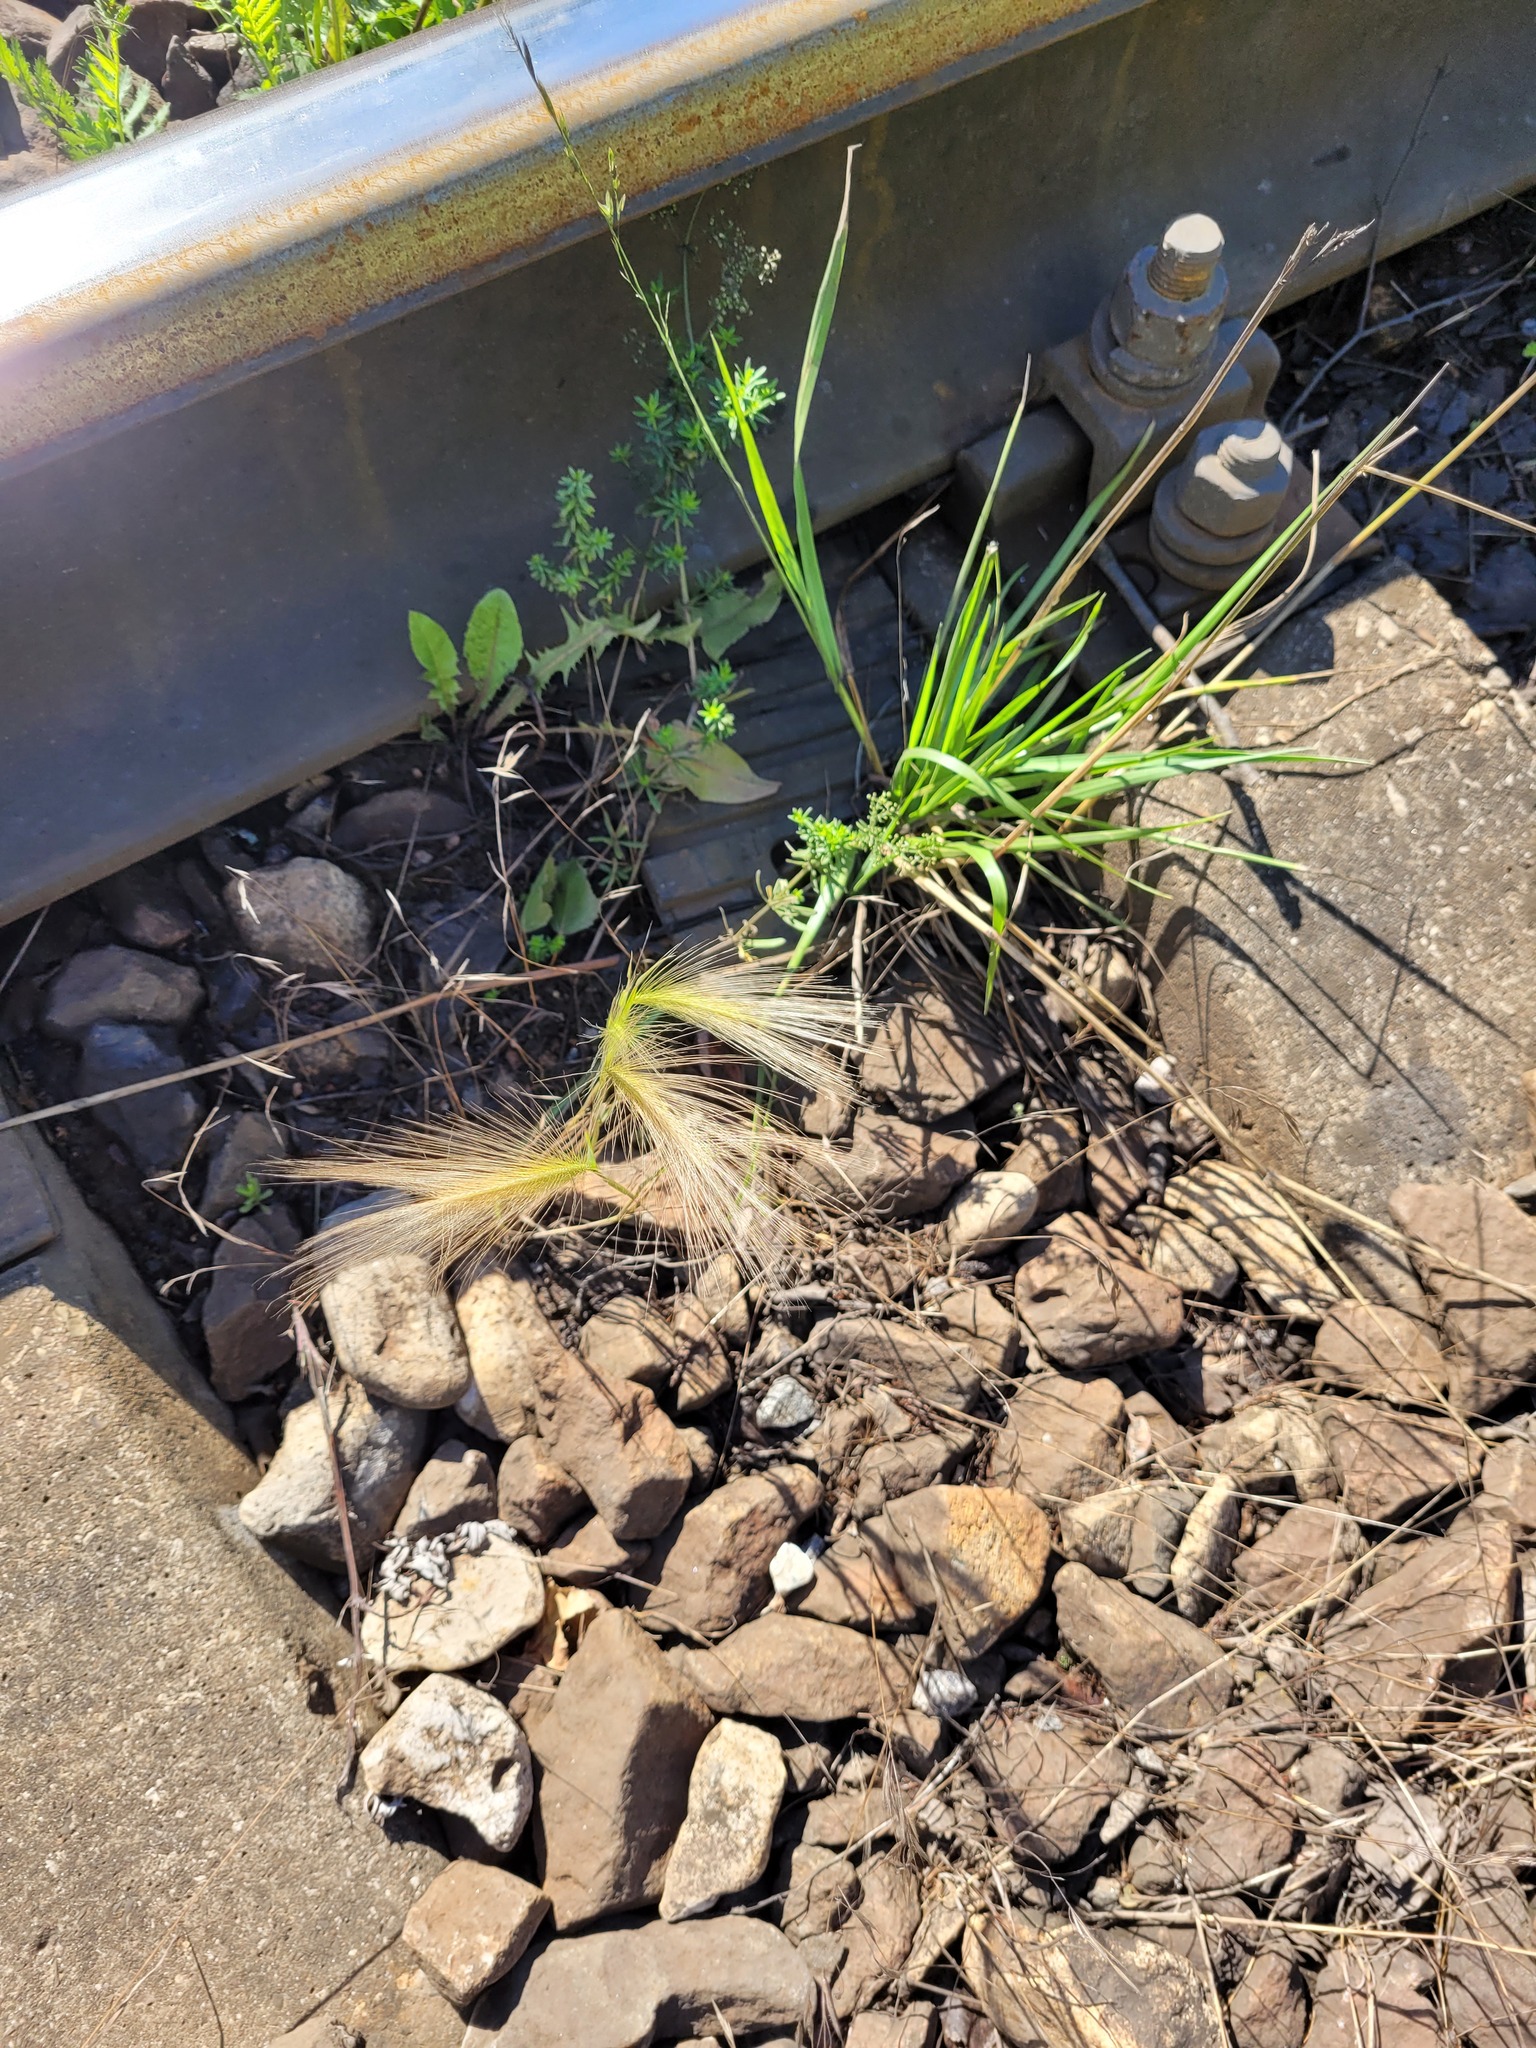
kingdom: Plantae
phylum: Tracheophyta
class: Liliopsida
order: Poales
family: Poaceae
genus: Hordeum
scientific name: Hordeum jubatum
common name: Foxtail barley
